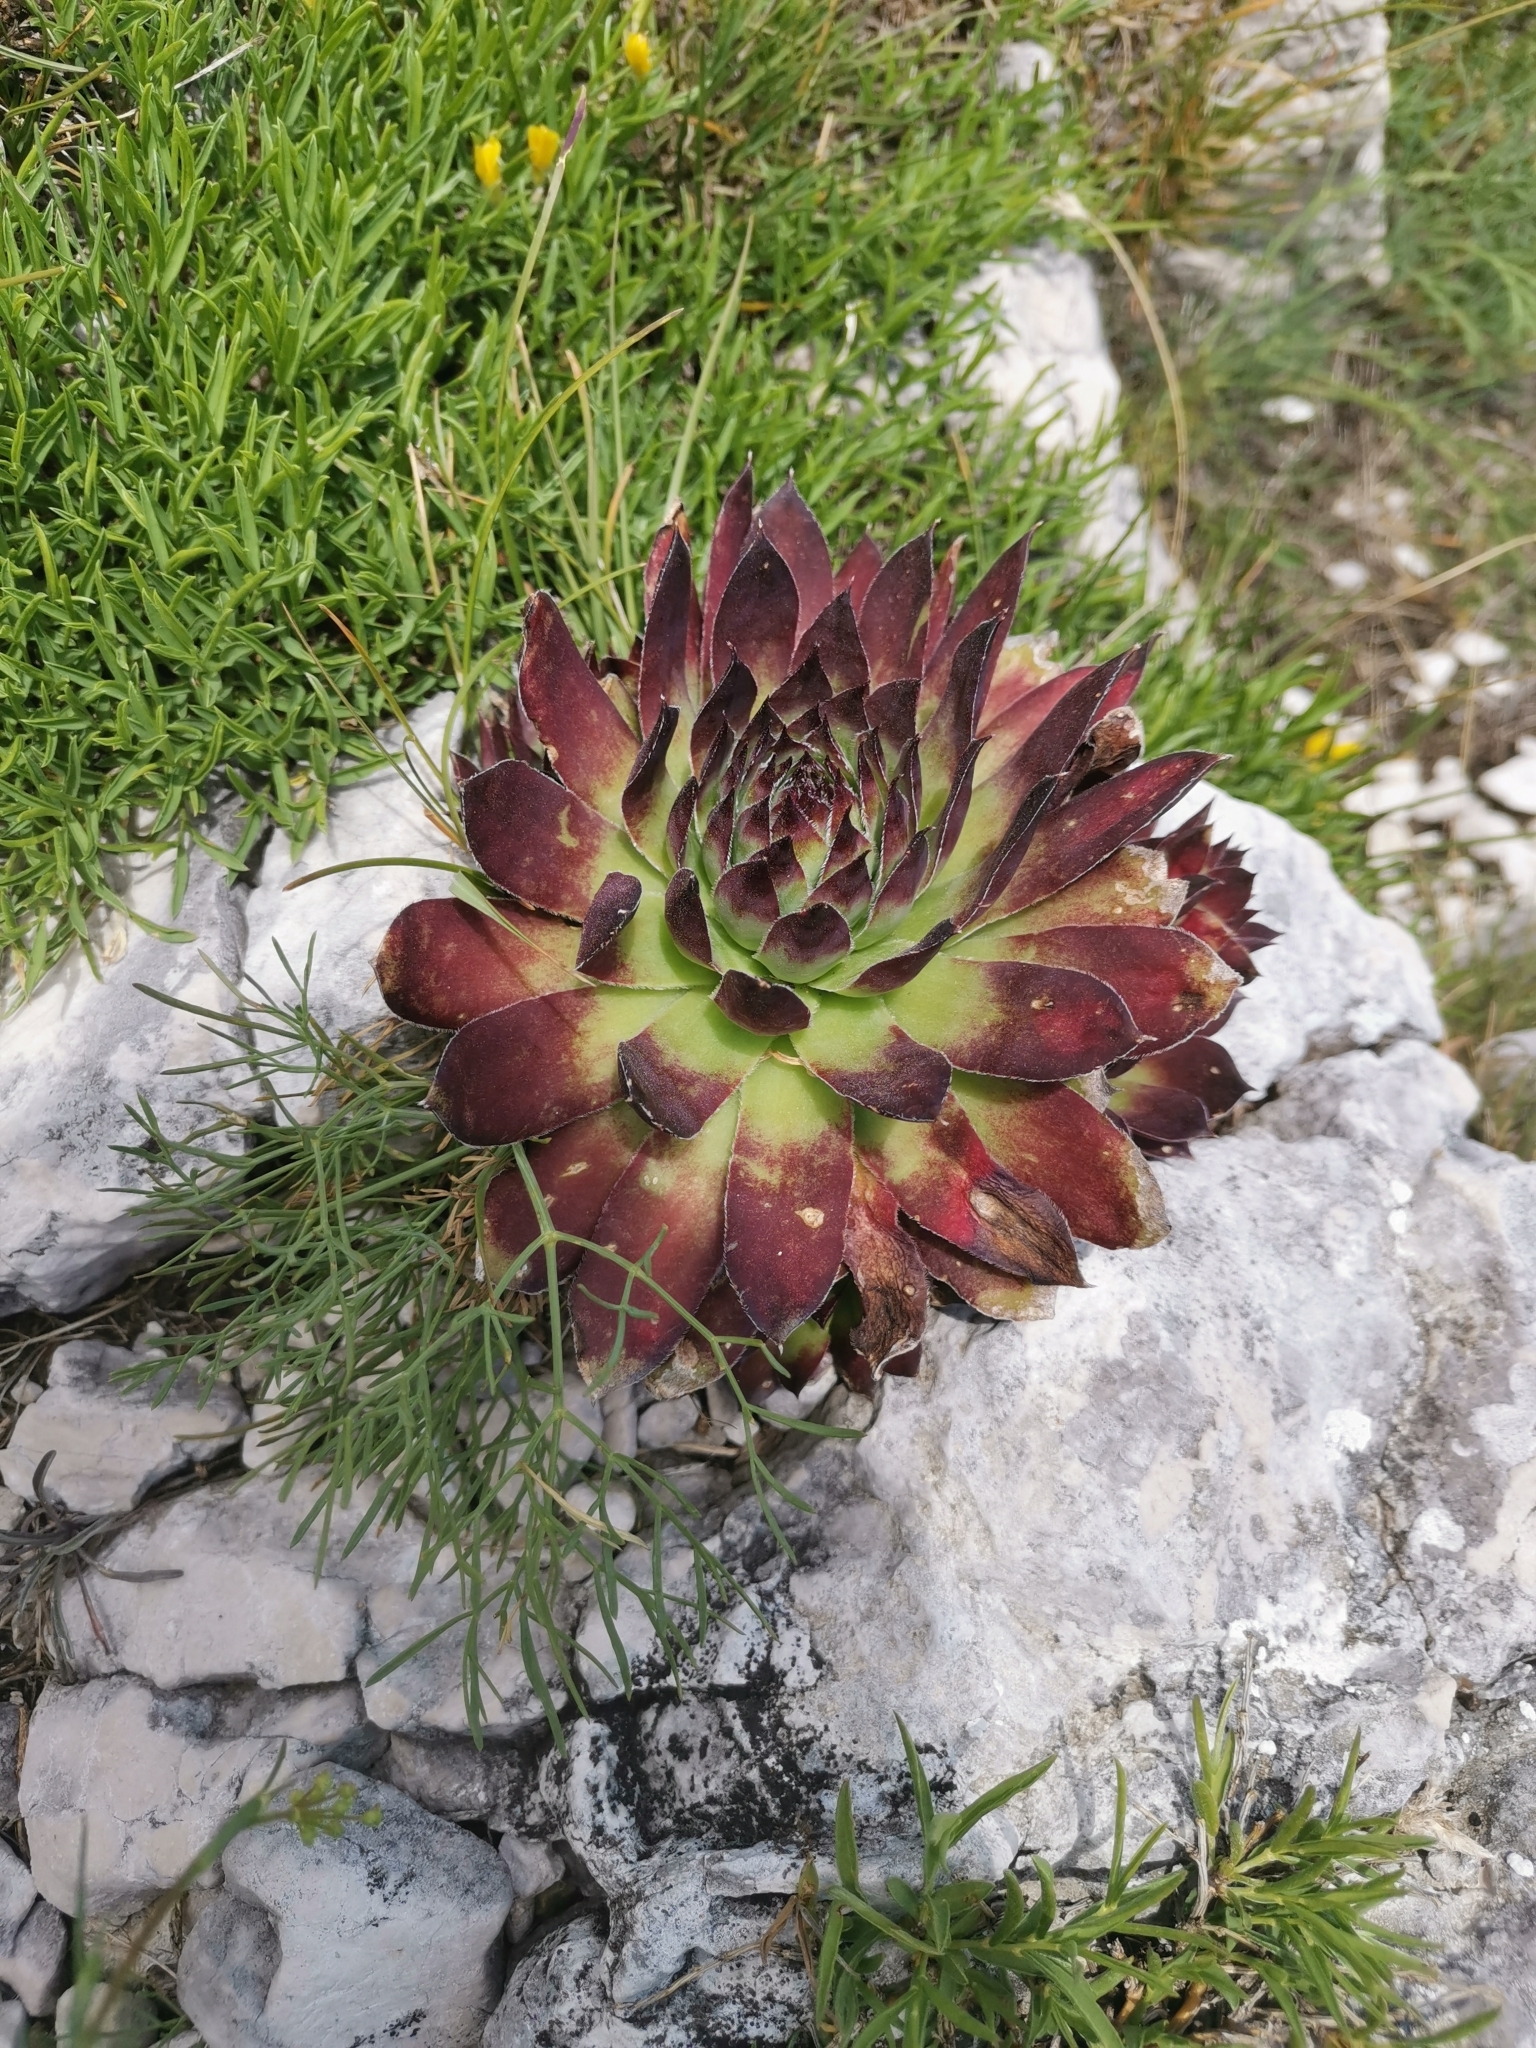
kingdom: Plantae
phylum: Tracheophyta
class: Magnoliopsida
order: Saxifragales
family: Crassulaceae
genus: Sempervivum
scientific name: Sempervivum tectorum
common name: House-leek
